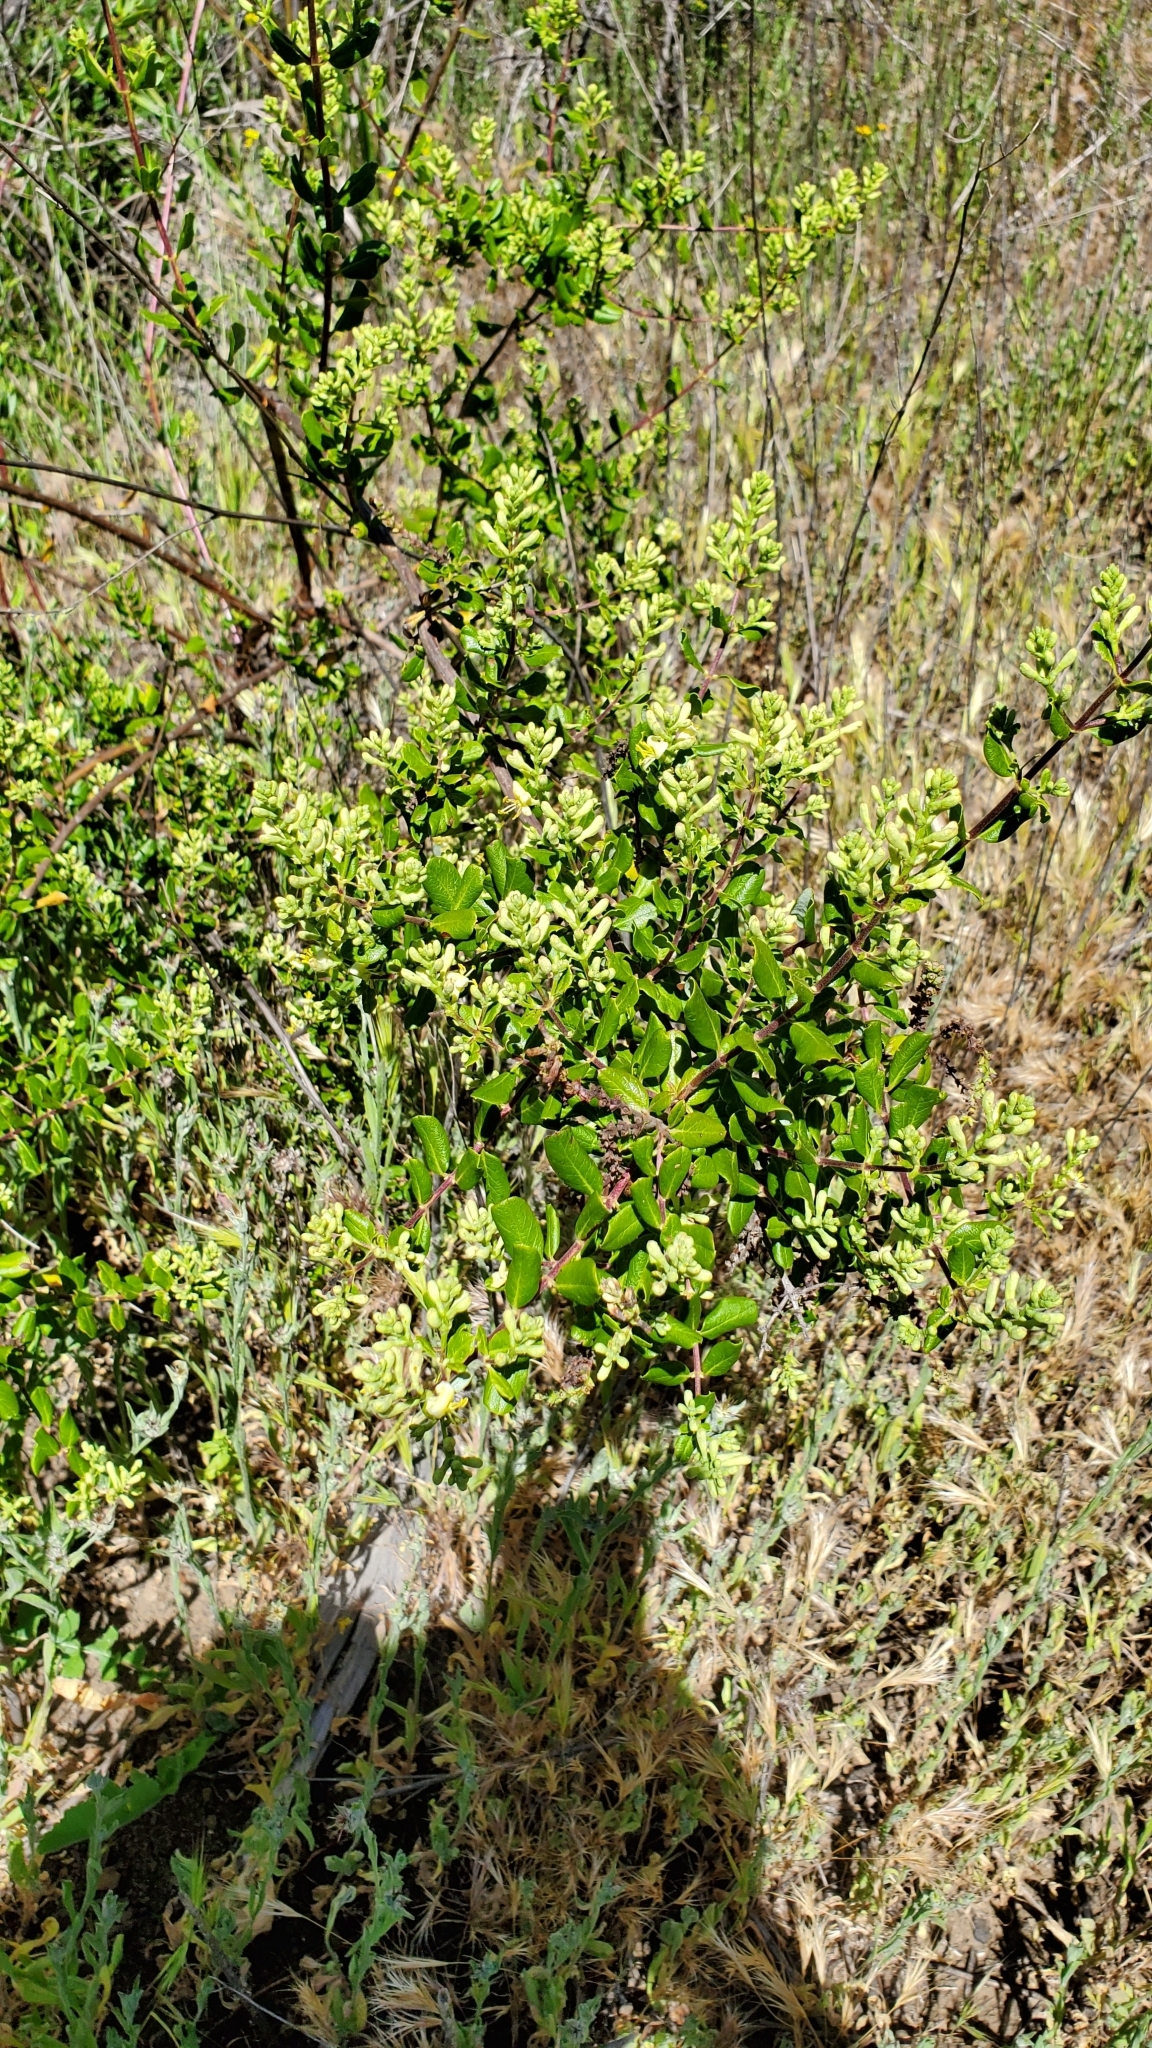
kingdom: Plantae
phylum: Tracheophyta
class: Magnoliopsida
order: Dipsacales
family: Caprifoliaceae
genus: Lonicera
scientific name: Lonicera subspicata
